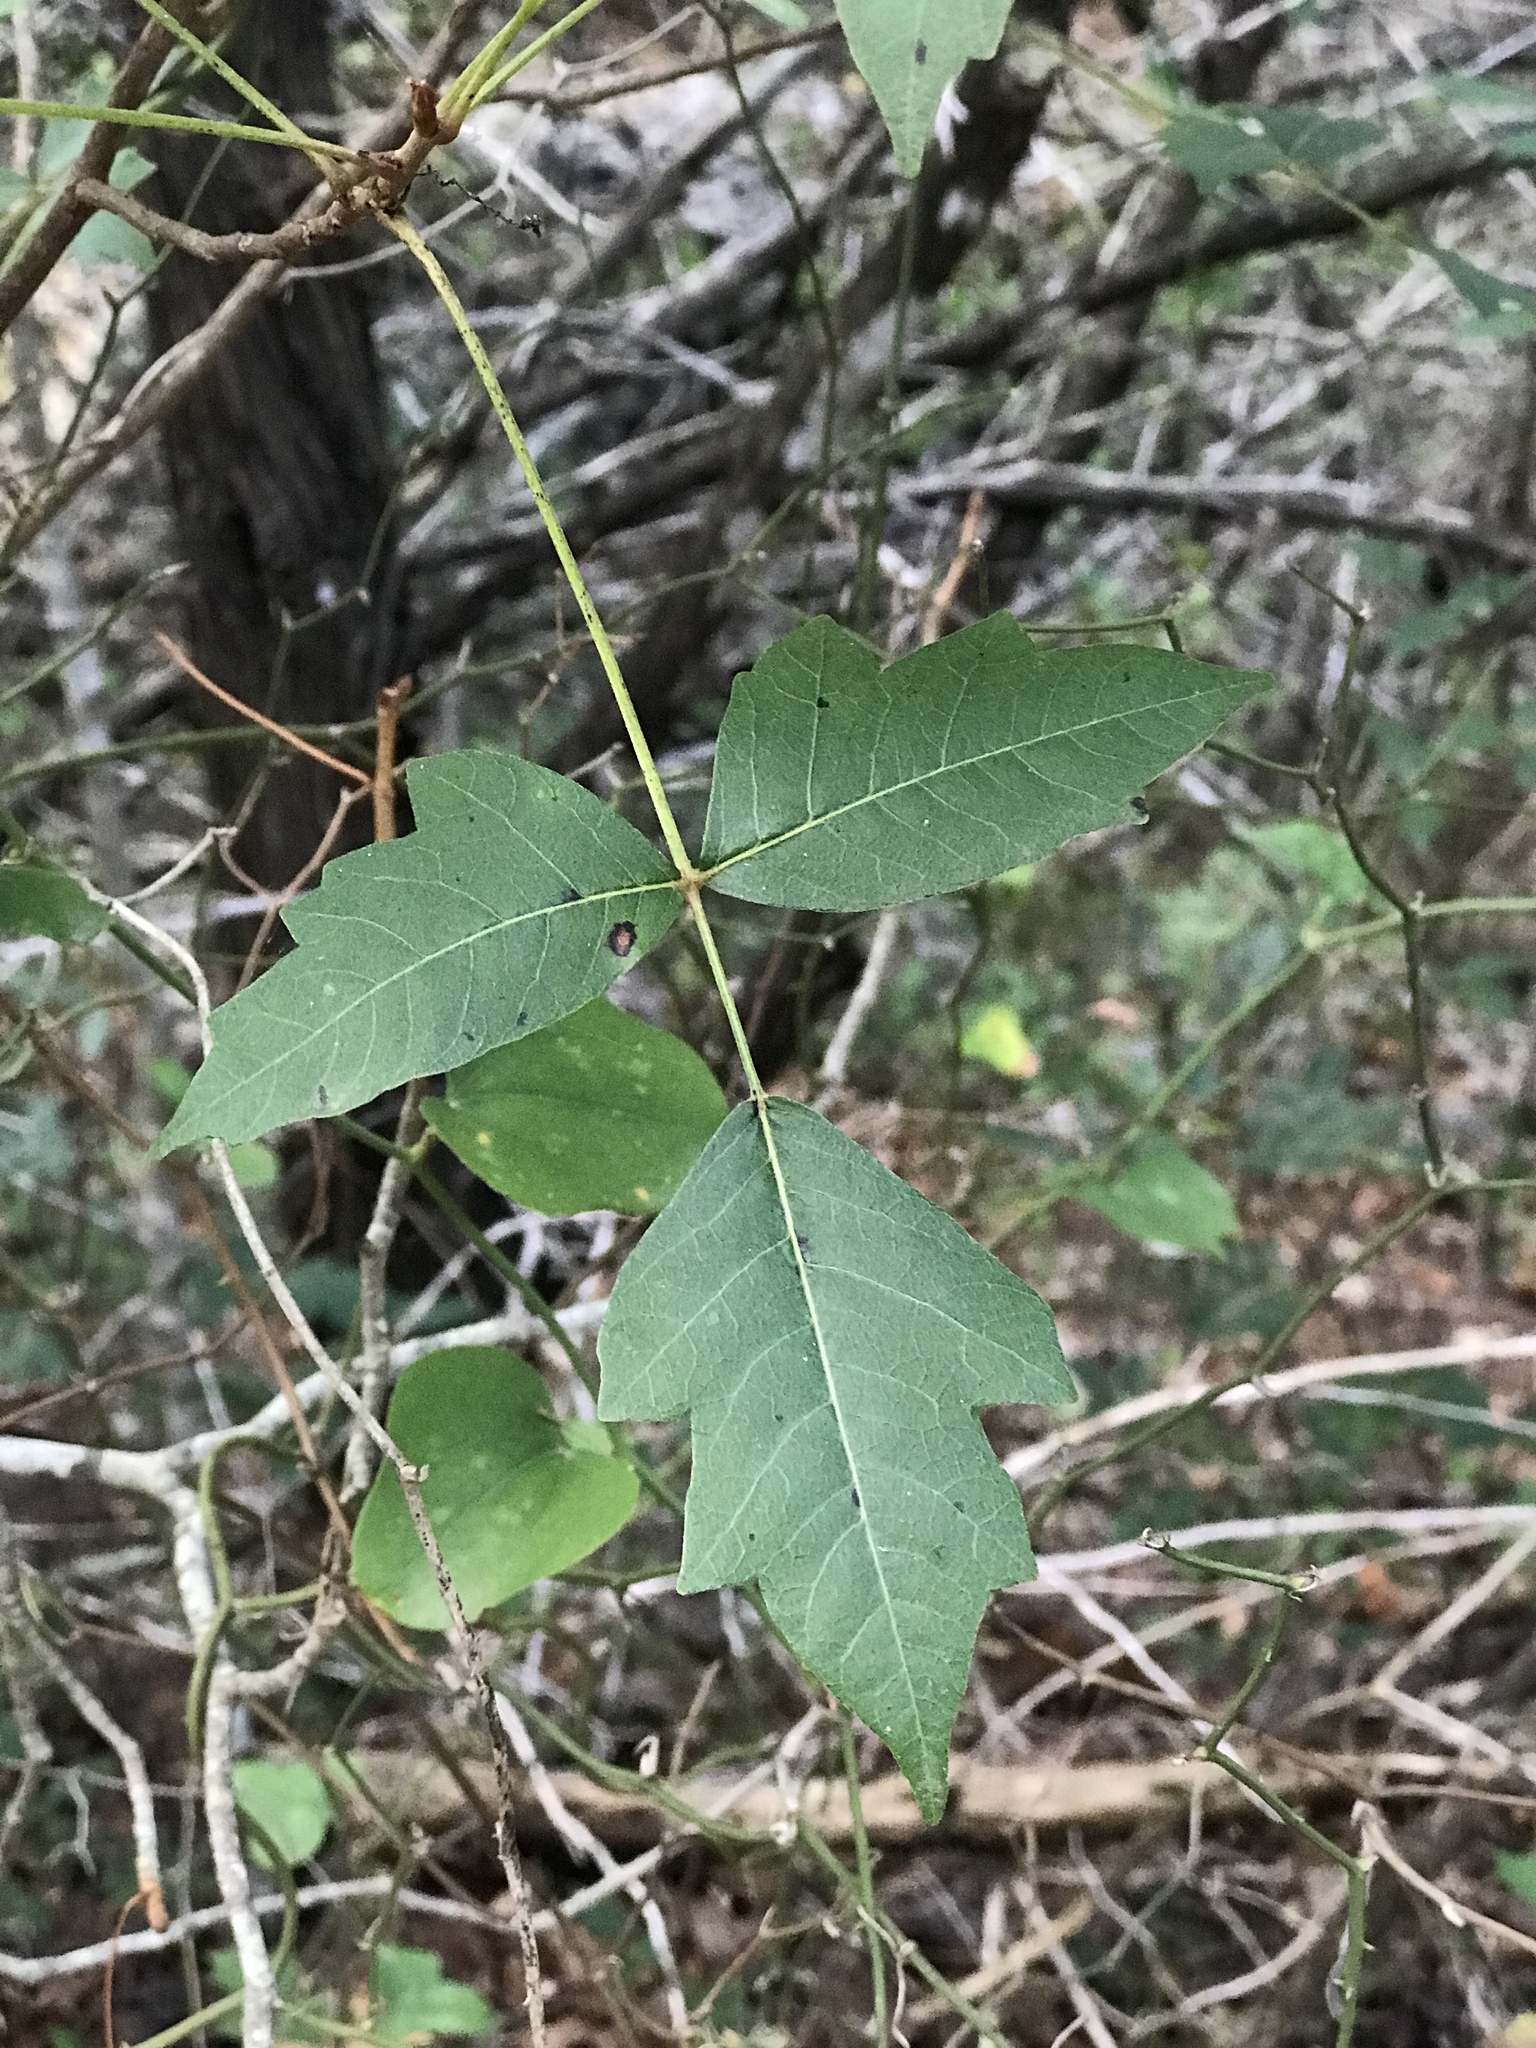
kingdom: Plantae
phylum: Tracheophyta
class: Magnoliopsida
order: Sapindales
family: Anacardiaceae
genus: Toxicodendron
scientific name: Toxicodendron radicans
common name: Poison ivy
